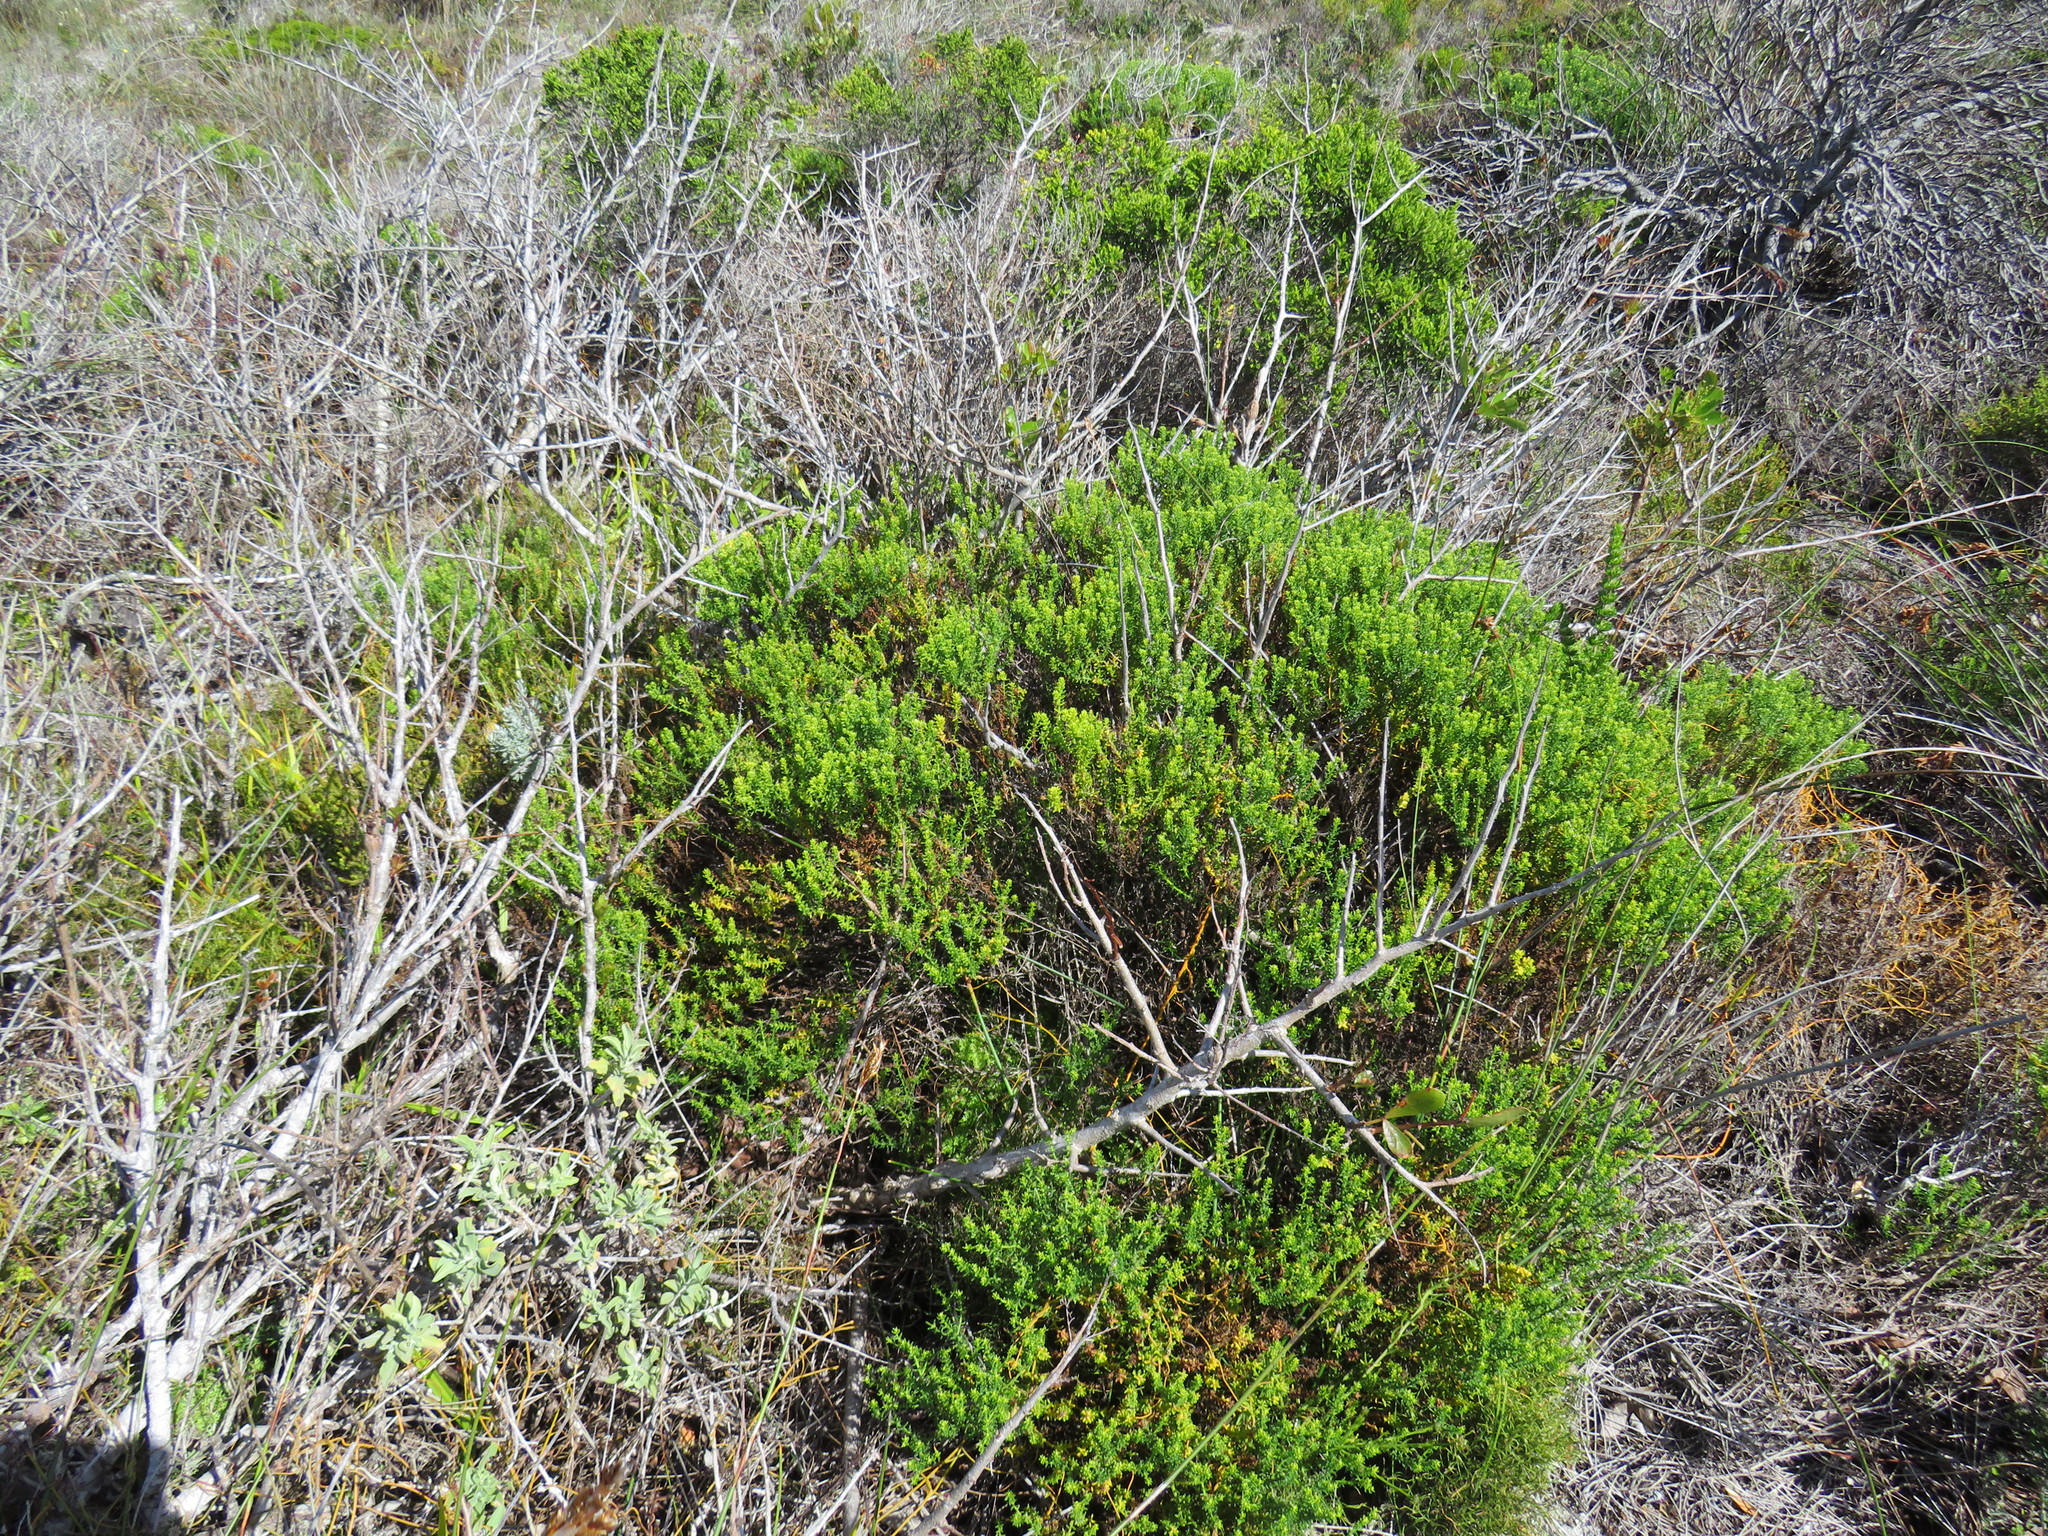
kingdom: Plantae
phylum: Tracheophyta
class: Magnoliopsida
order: Asterales
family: Asteraceae
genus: Chrysocoma
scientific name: Chrysocoma cernua
